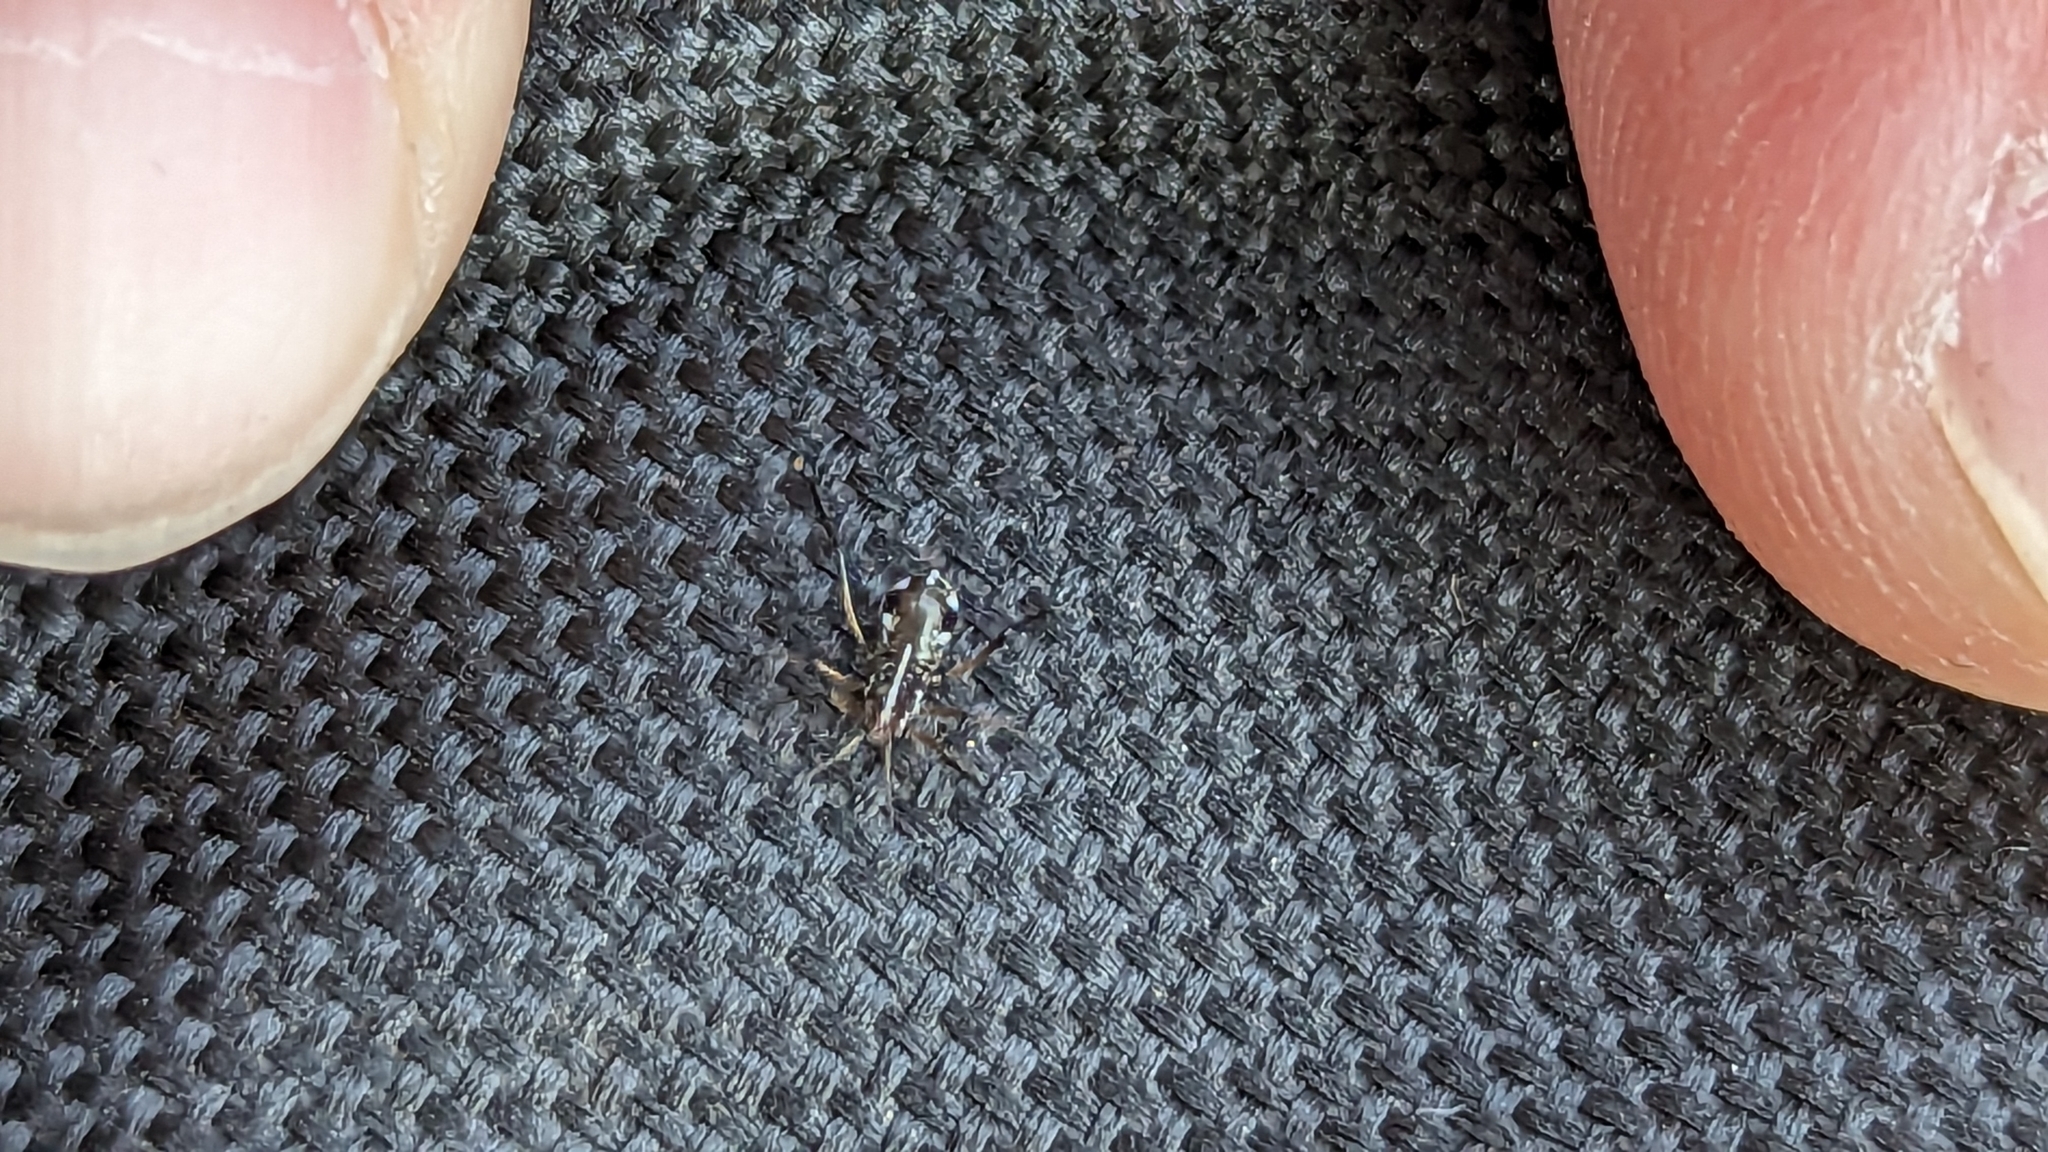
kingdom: Animalia
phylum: Arthropoda
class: Insecta
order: Hemiptera
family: Aphididae
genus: Cinara
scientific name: Cinara strobi
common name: White pine aphid
